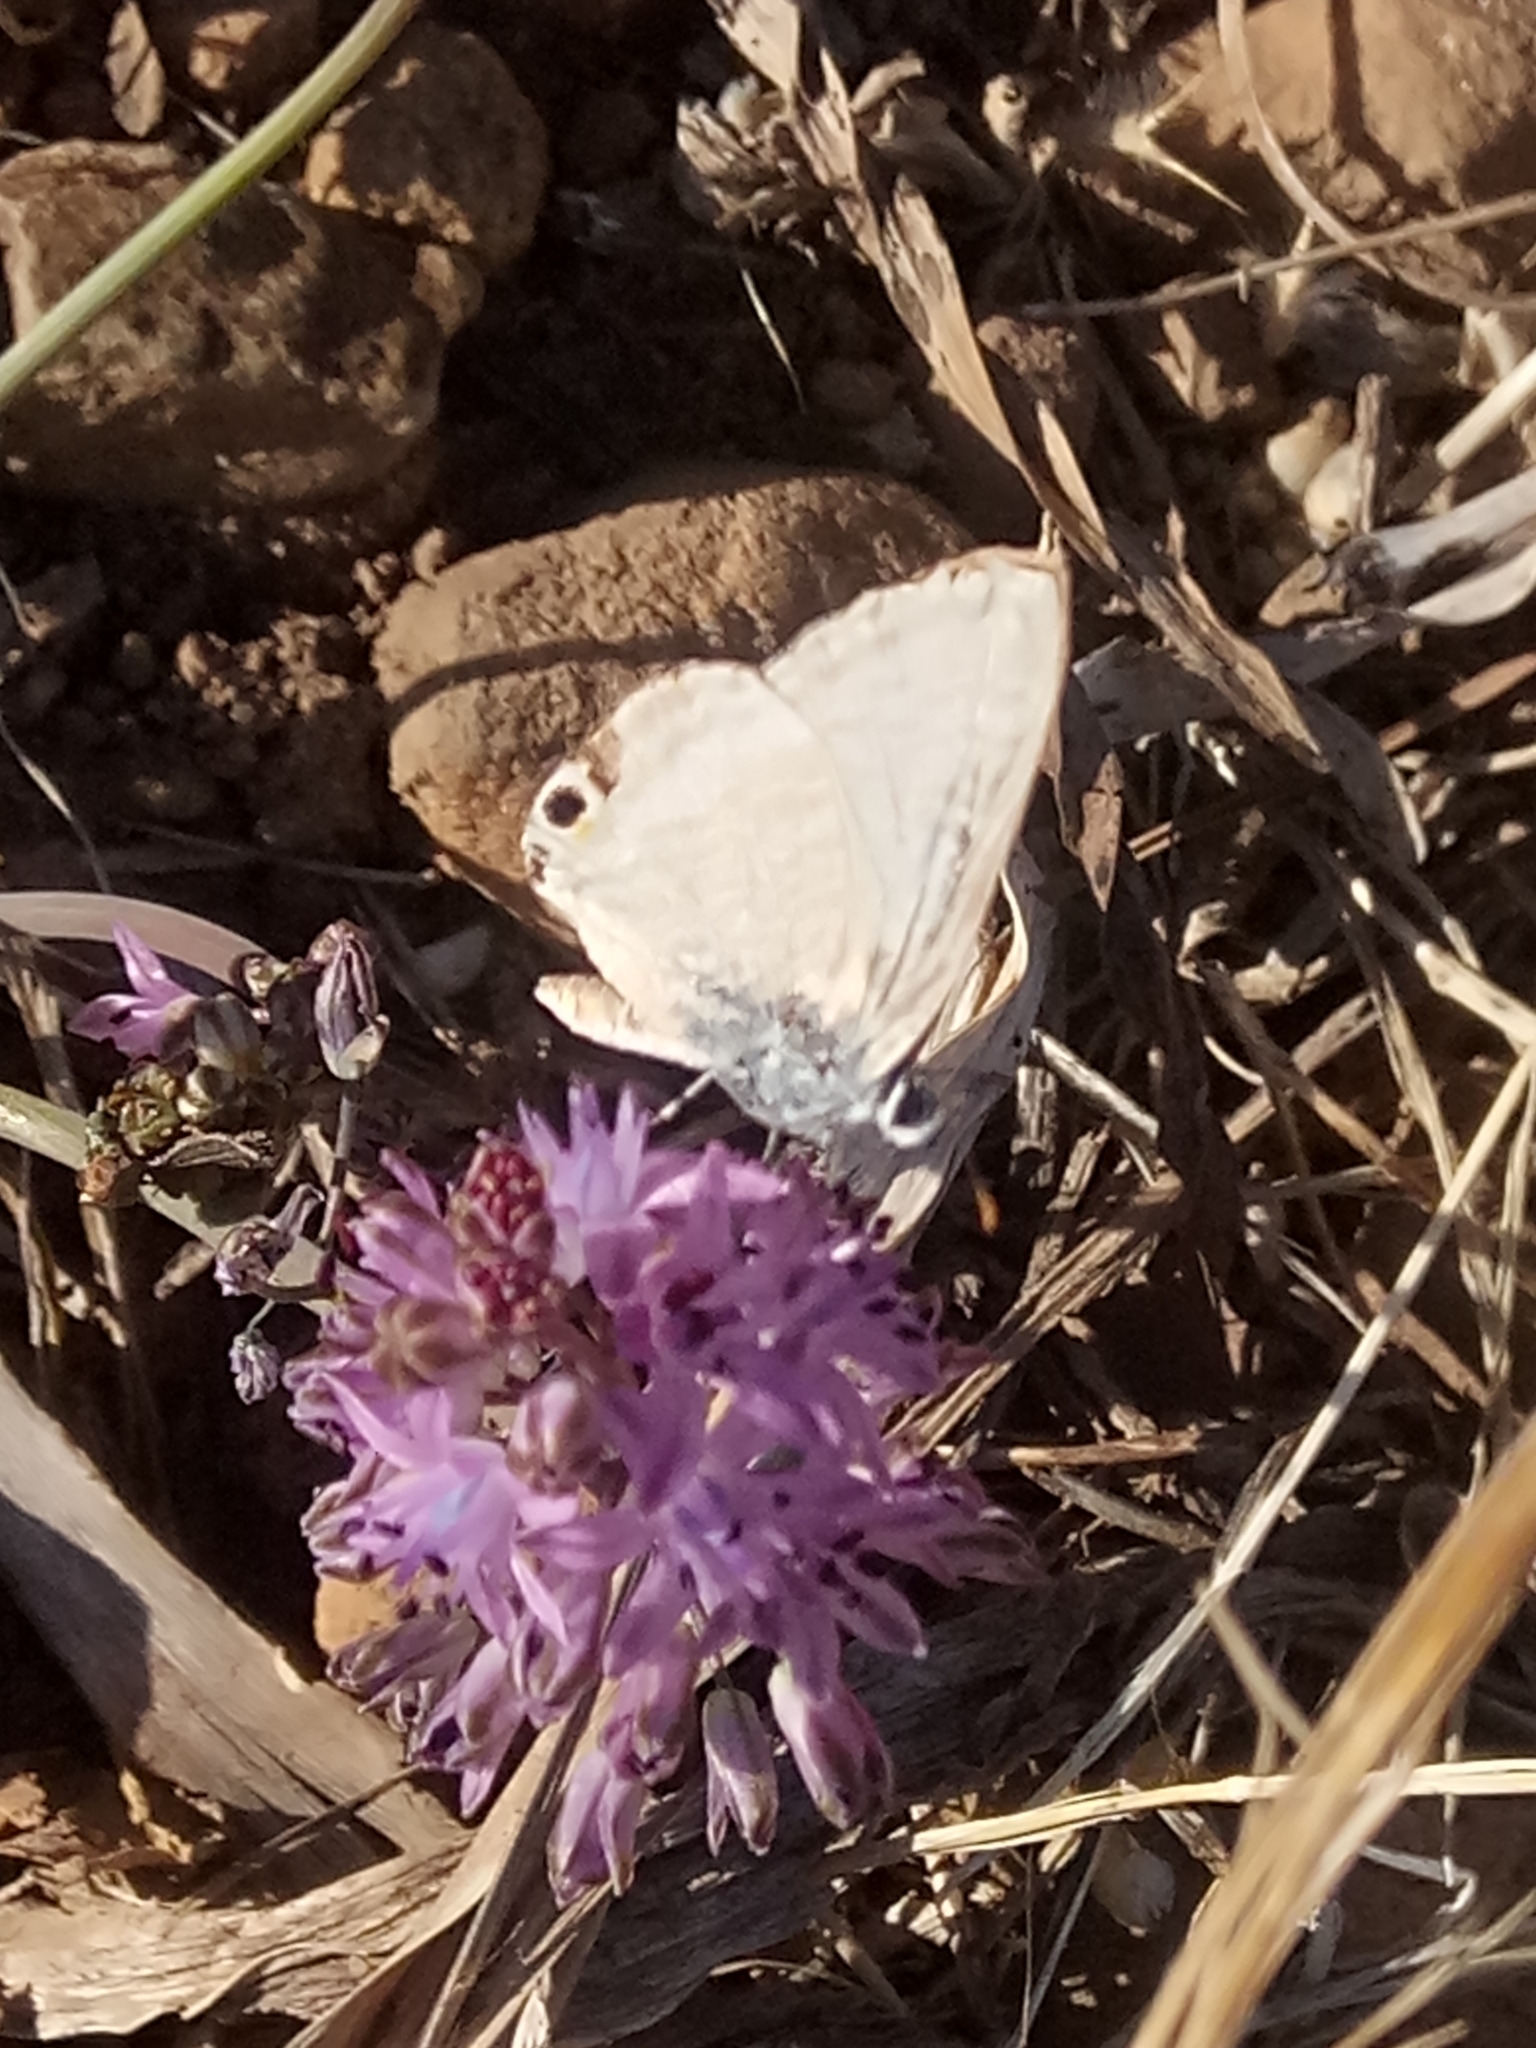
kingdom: Animalia
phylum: Arthropoda
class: Insecta
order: Lepidoptera
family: Lycaenidae
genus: Lampides
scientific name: Lampides boeticus
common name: Long-tailed blue
